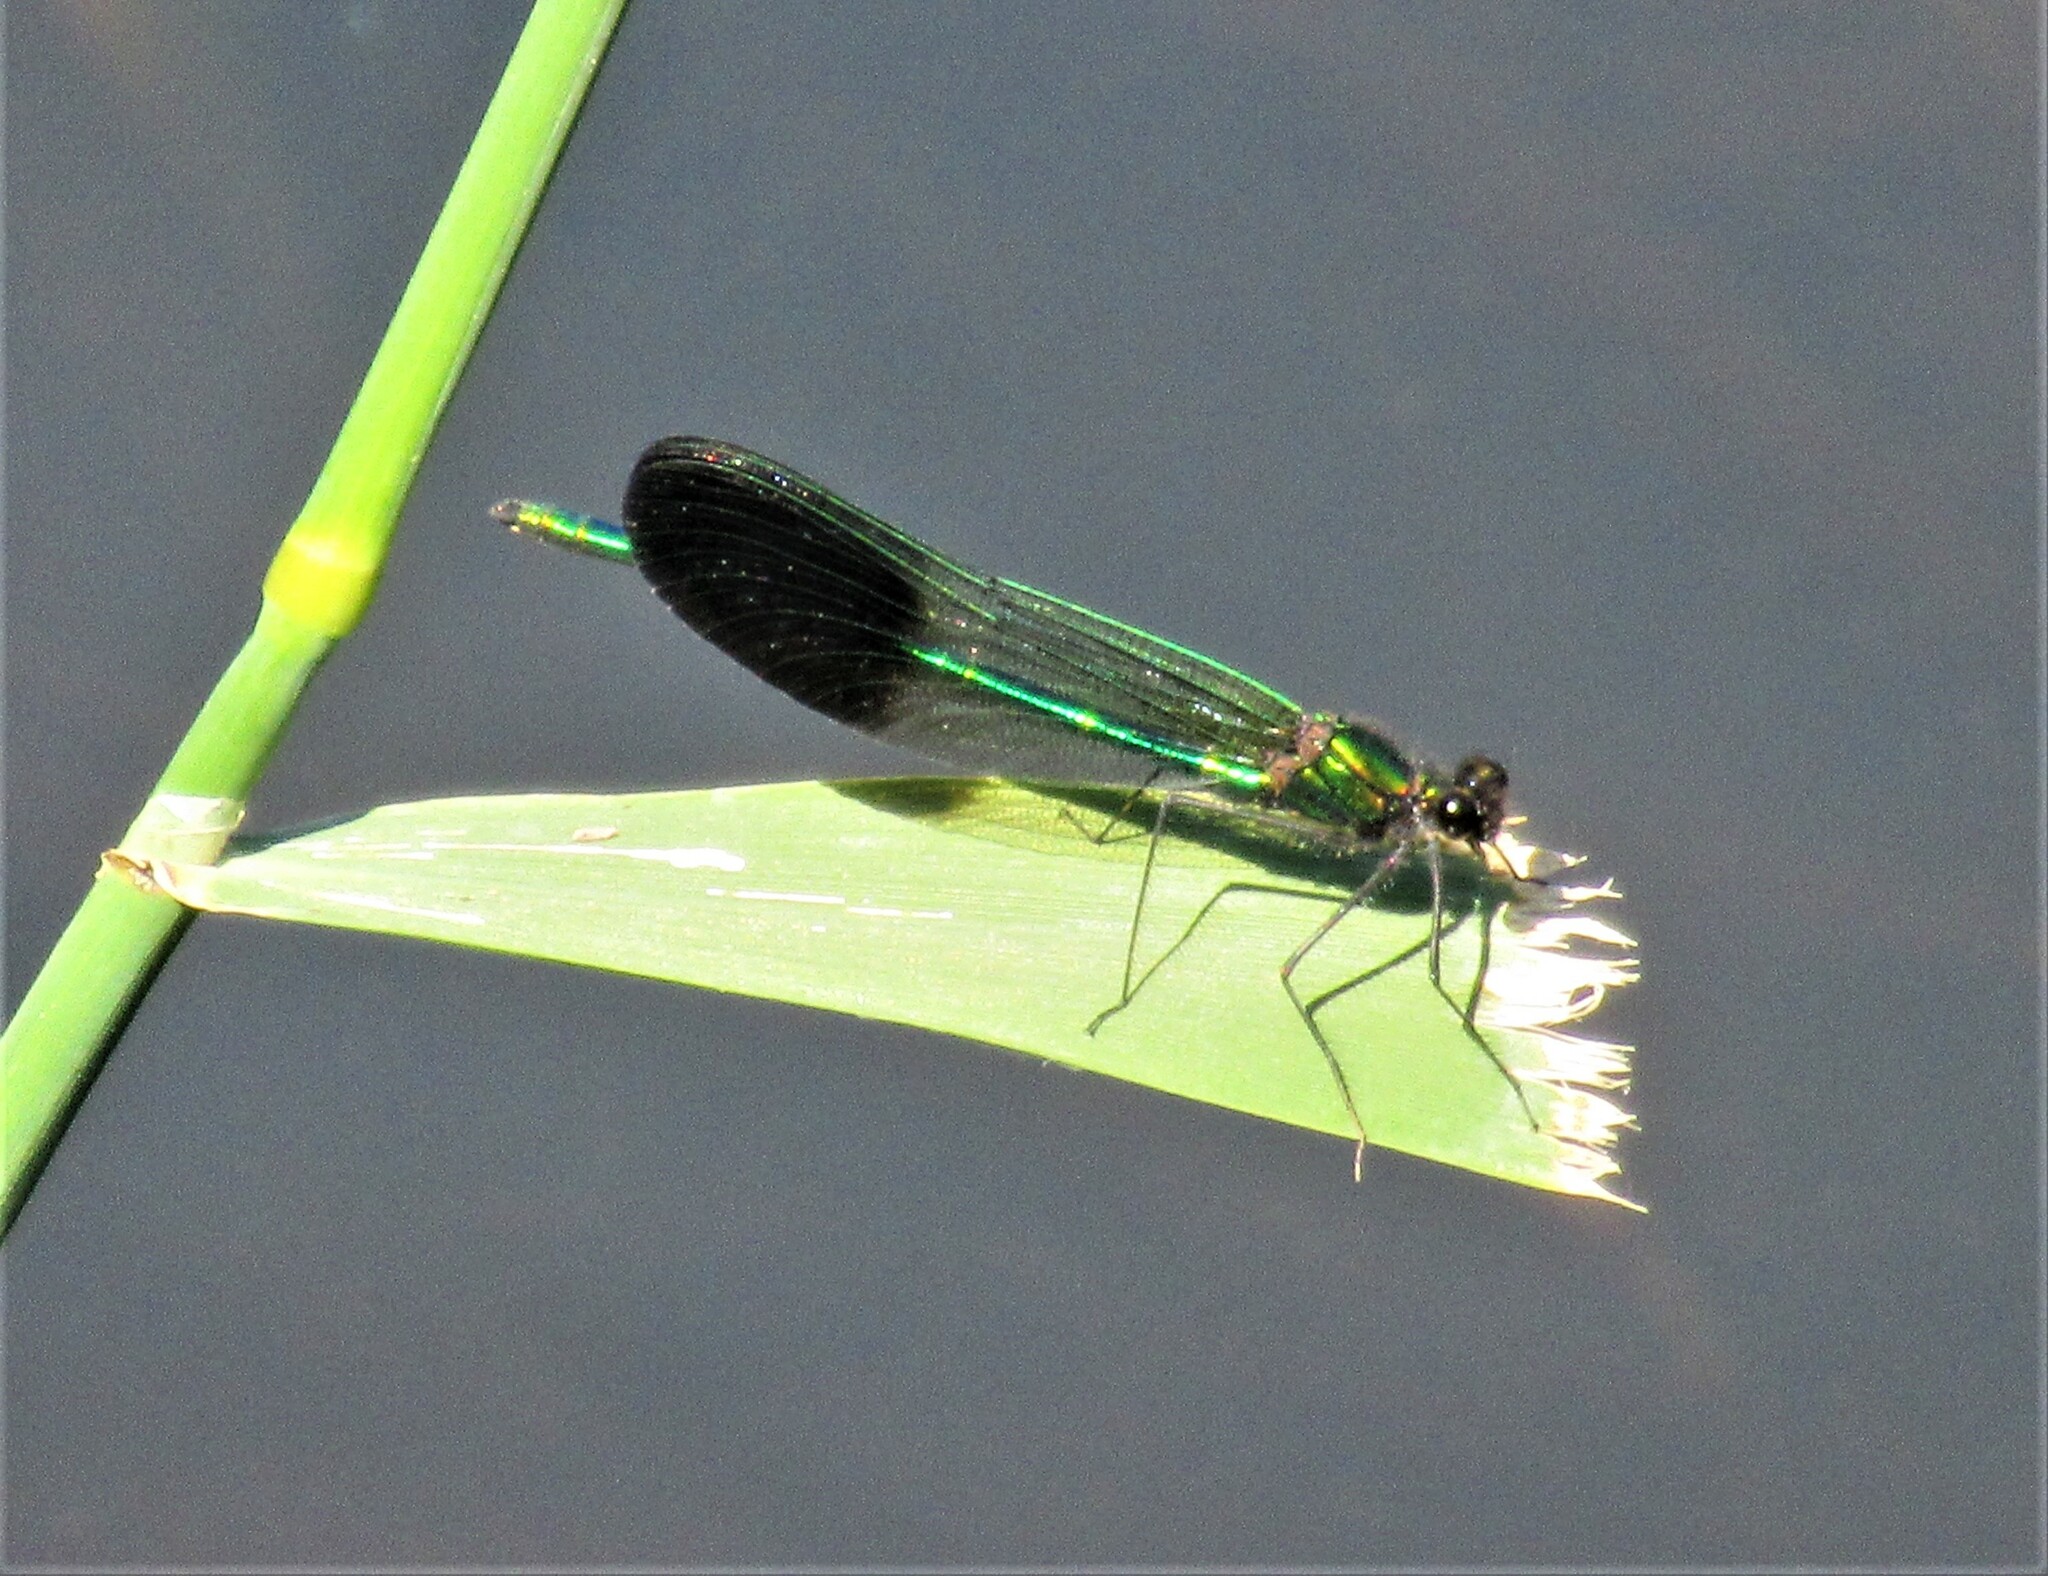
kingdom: Animalia
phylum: Arthropoda
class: Insecta
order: Odonata
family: Calopterygidae
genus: Calopteryx
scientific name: Calopteryx aequabilis
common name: River jewelwing
